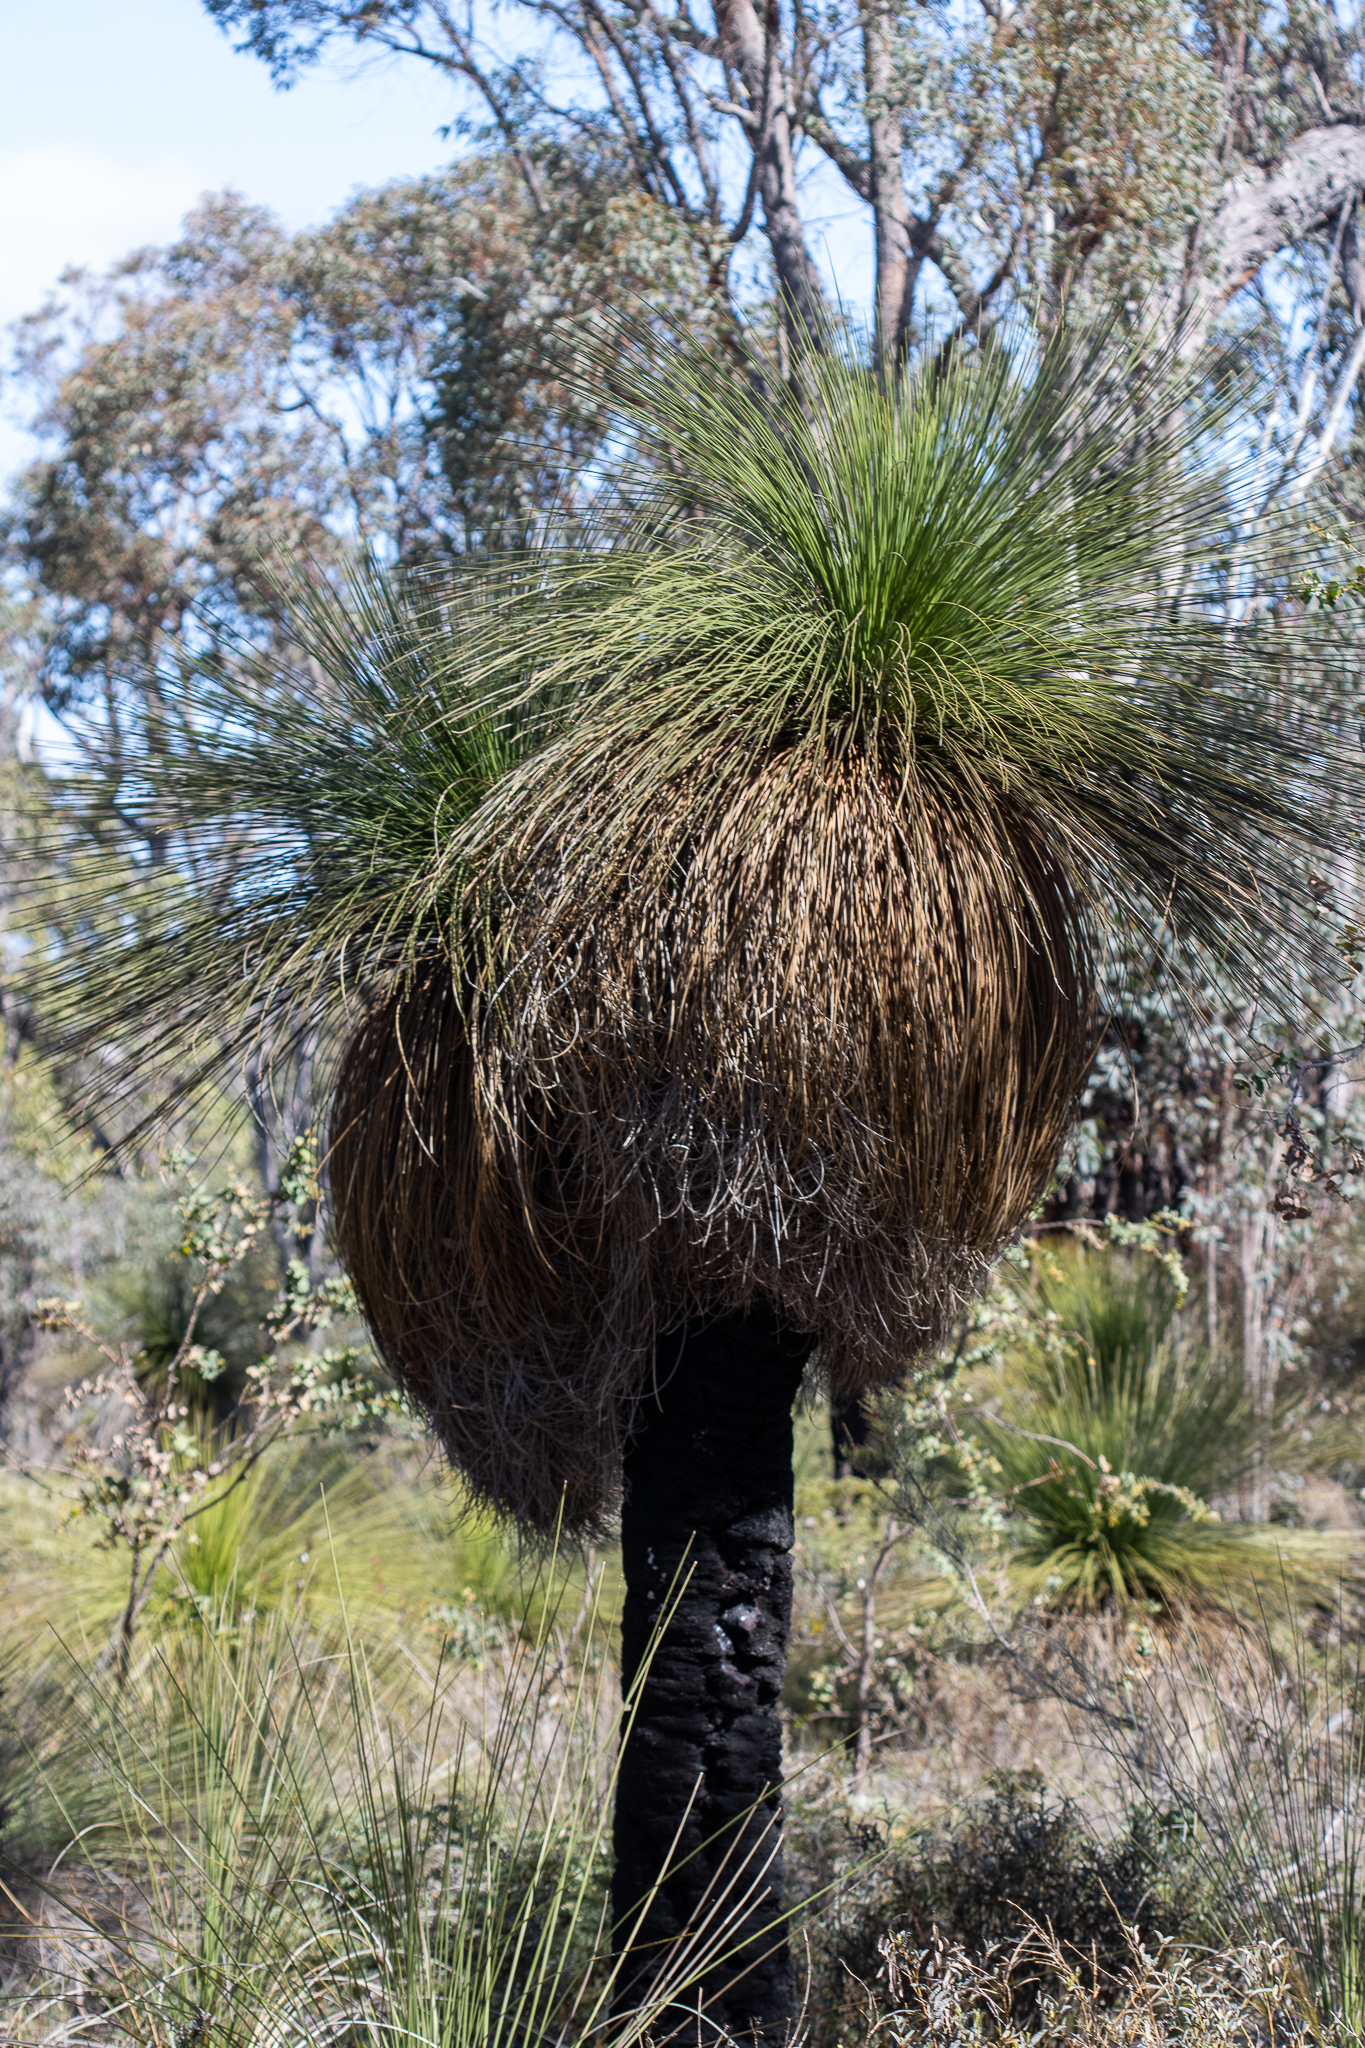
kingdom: Plantae
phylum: Tracheophyta
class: Liliopsida
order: Asparagales
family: Asphodelaceae
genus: Xanthorrhoea
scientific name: Xanthorrhoea preissii
